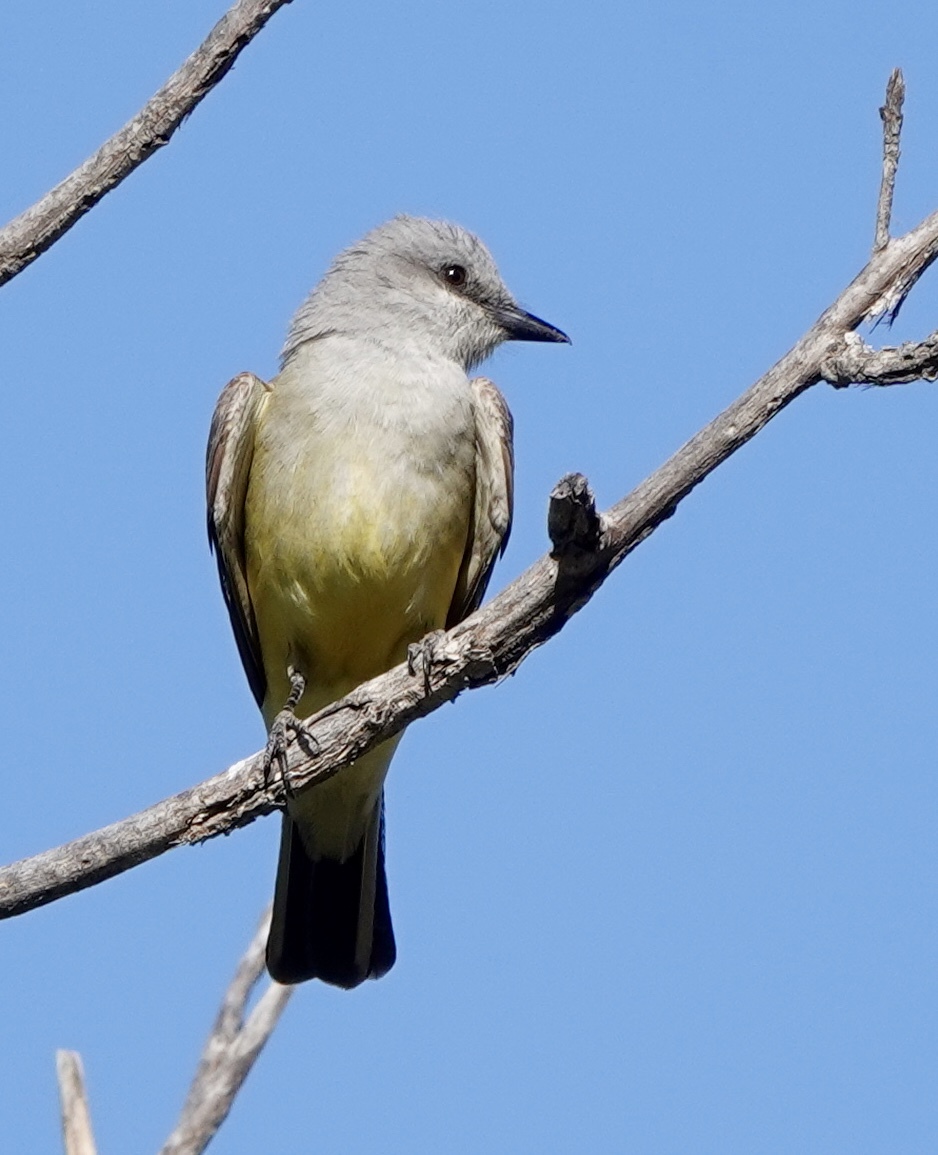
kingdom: Animalia
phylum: Chordata
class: Aves
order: Passeriformes
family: Tyrannidae
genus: Tyrannus
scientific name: Tyrannus verticalis
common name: Western kingbird
